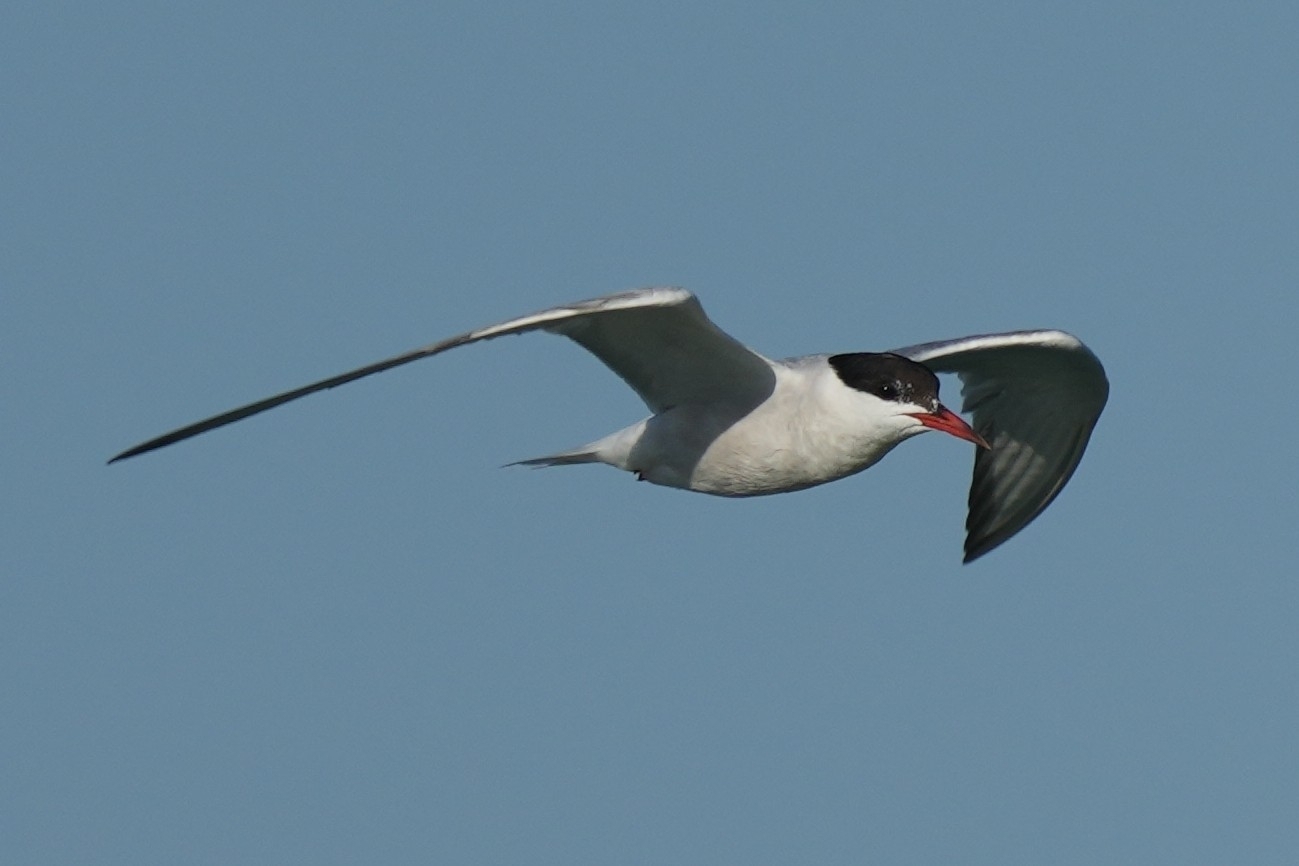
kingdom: Animalia
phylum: Chordata
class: Aves
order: Charadriiformes
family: Laridae
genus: Sterna
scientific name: Sterna hirundo
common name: Common tern
